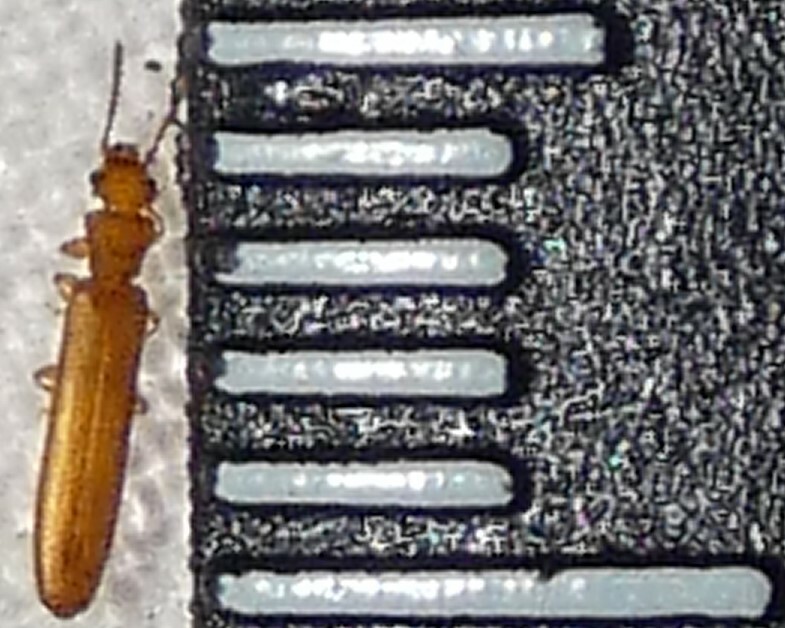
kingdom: Animalia
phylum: Arthropoda
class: Insecta
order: Coleoptera
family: Mycteridae
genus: Hemipeplus
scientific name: Hemipeplus microphthalmus
